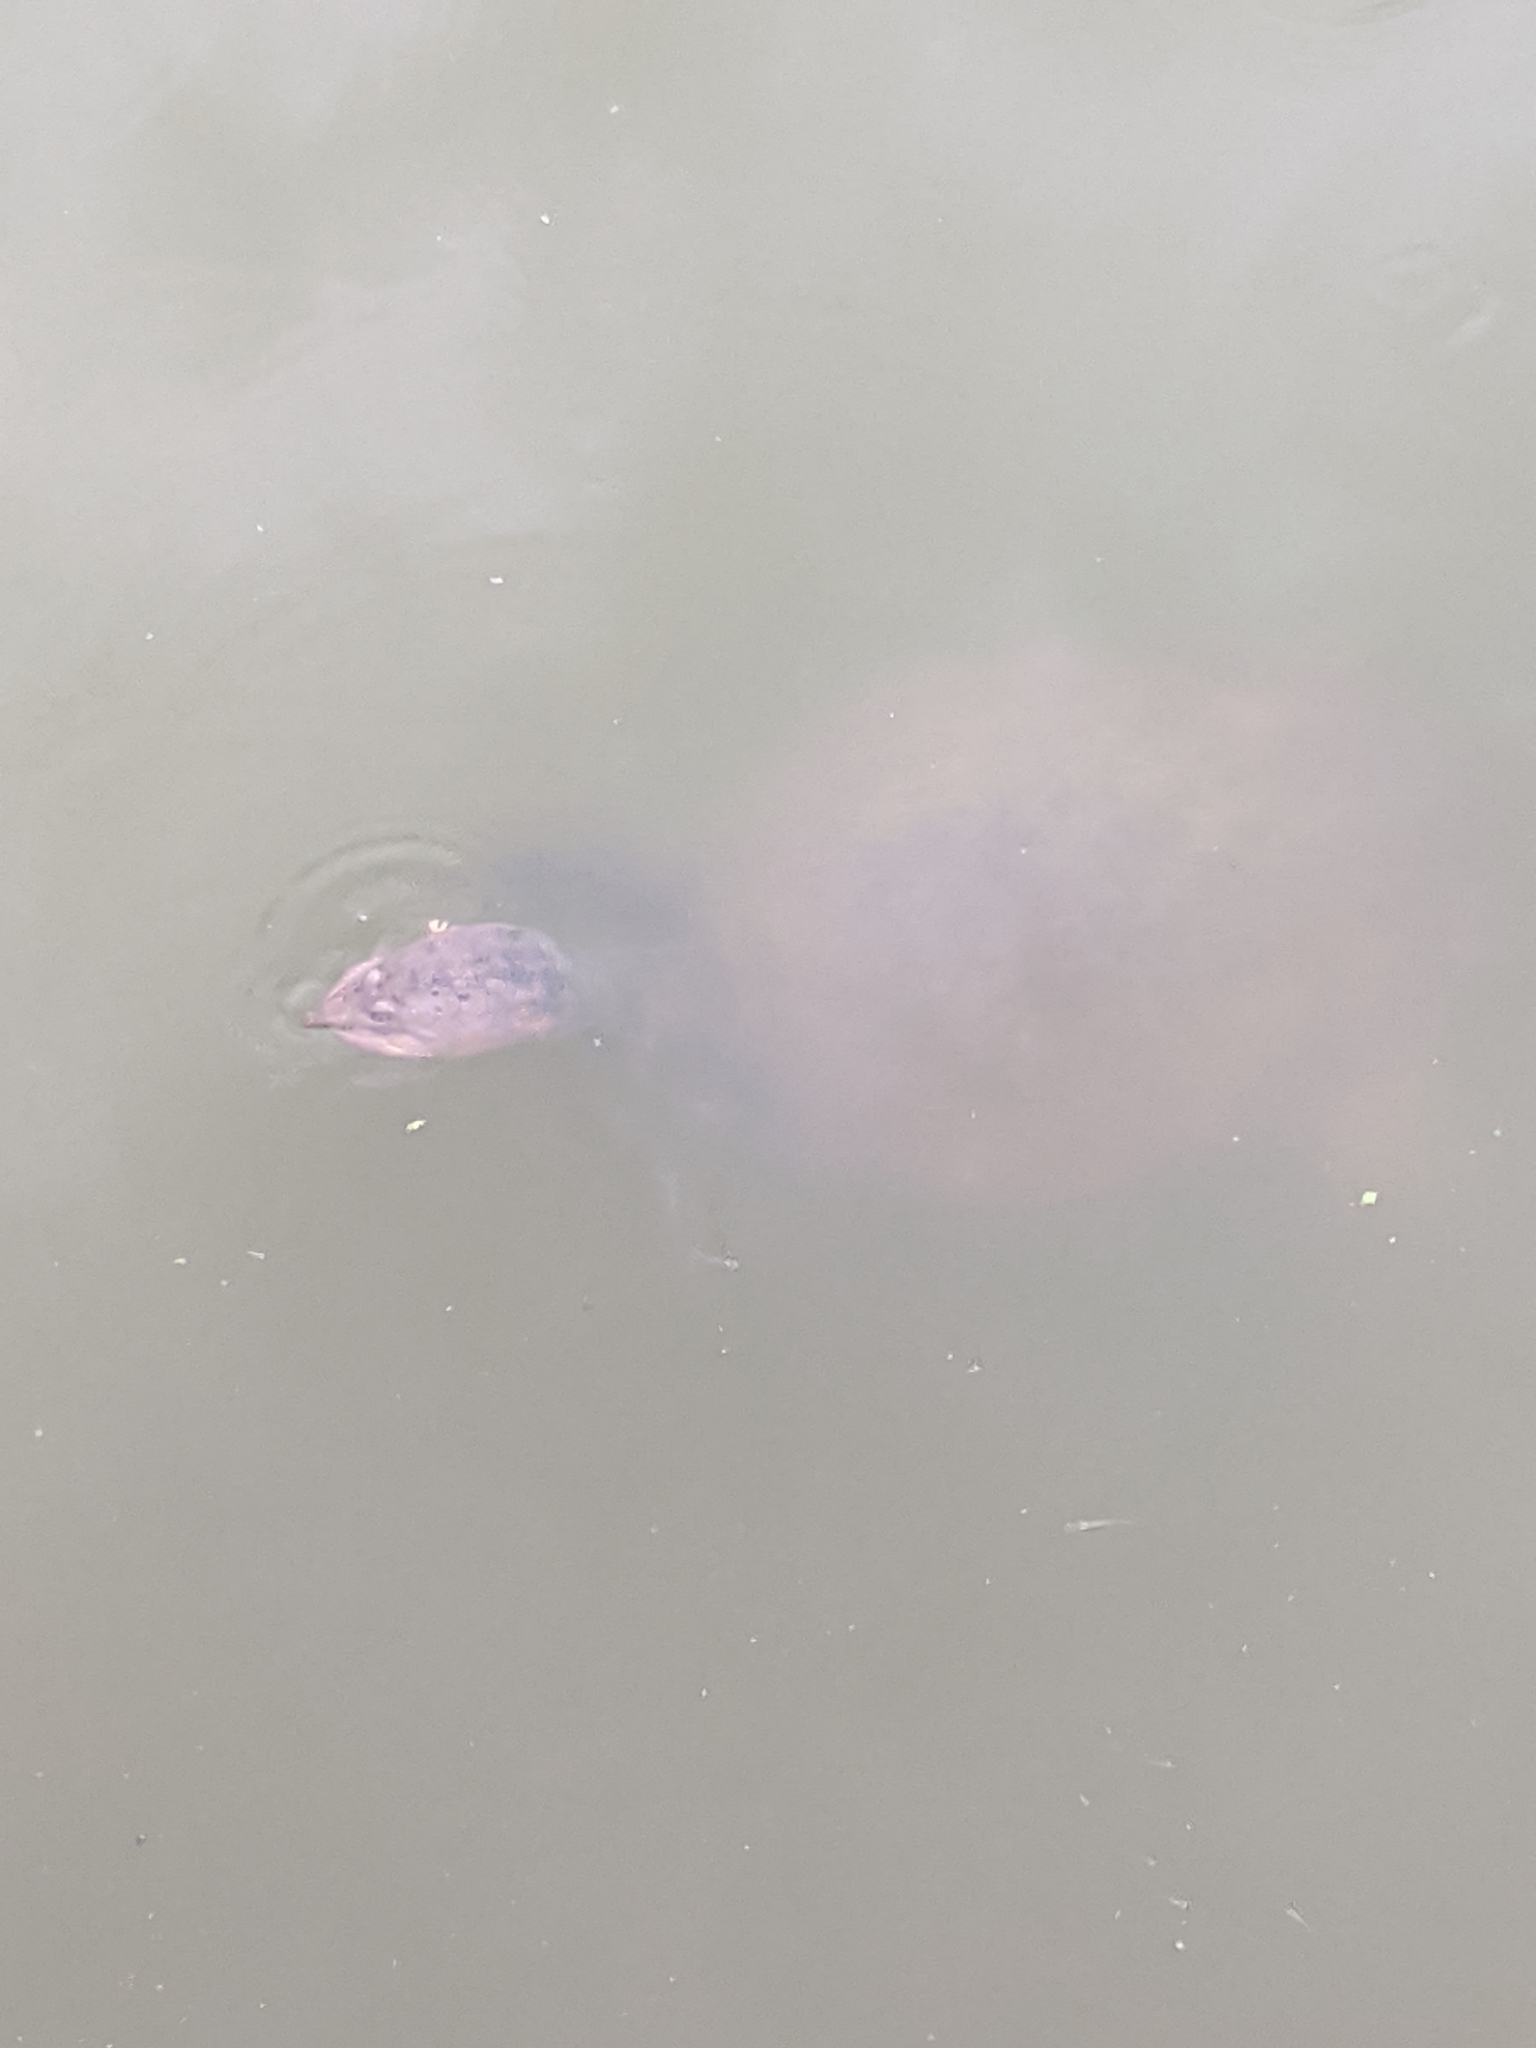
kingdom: Animalia
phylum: Chordata
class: Testudines
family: Trionychidae
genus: Apalone
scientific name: Apalone ferox
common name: Florida softshell turtle
